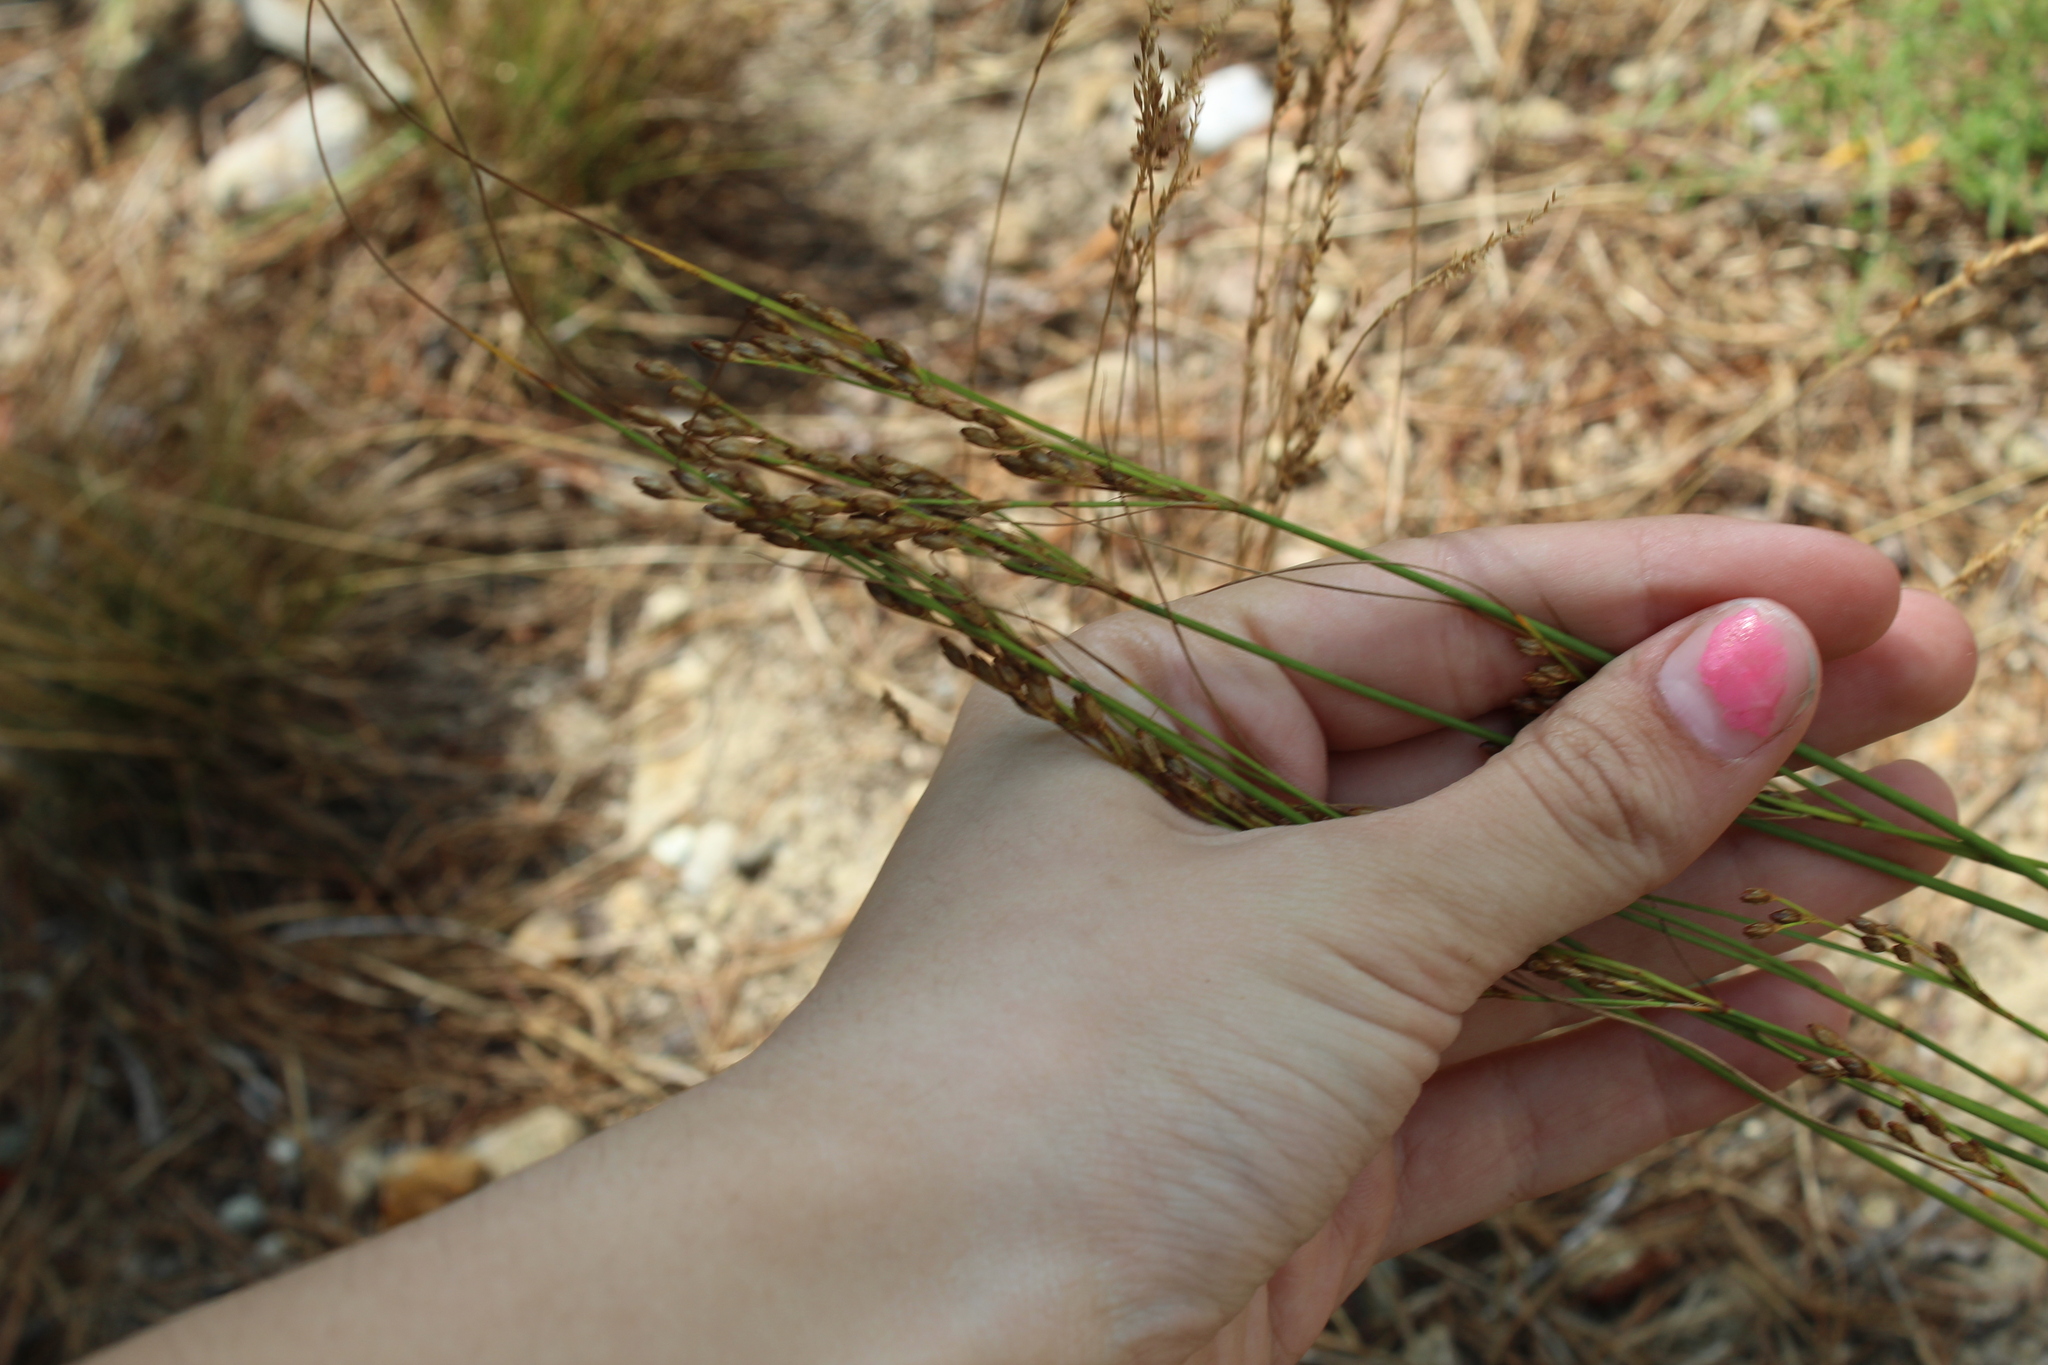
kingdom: Plantae
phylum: Tracheophyta
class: Liliopsida
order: Poales
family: Juncaceae
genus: Juncus
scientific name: Juncus greenei
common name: Greene's rush
